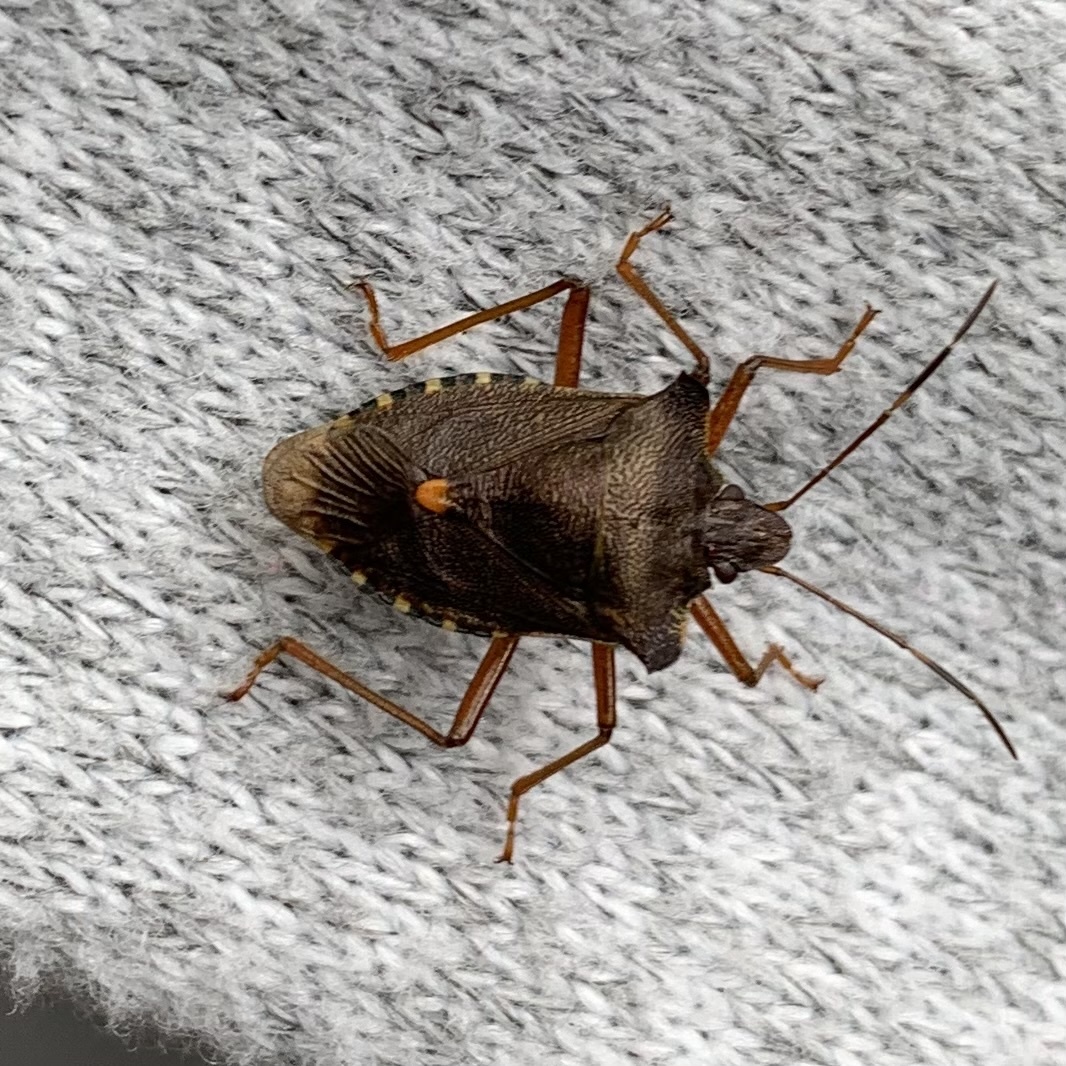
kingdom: Animalia
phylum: Arthropoda
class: Insecta
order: Hemiptera
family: Pentatomidae
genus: Pentatoma
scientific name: Pentatoma rufipes
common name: Forest bug
